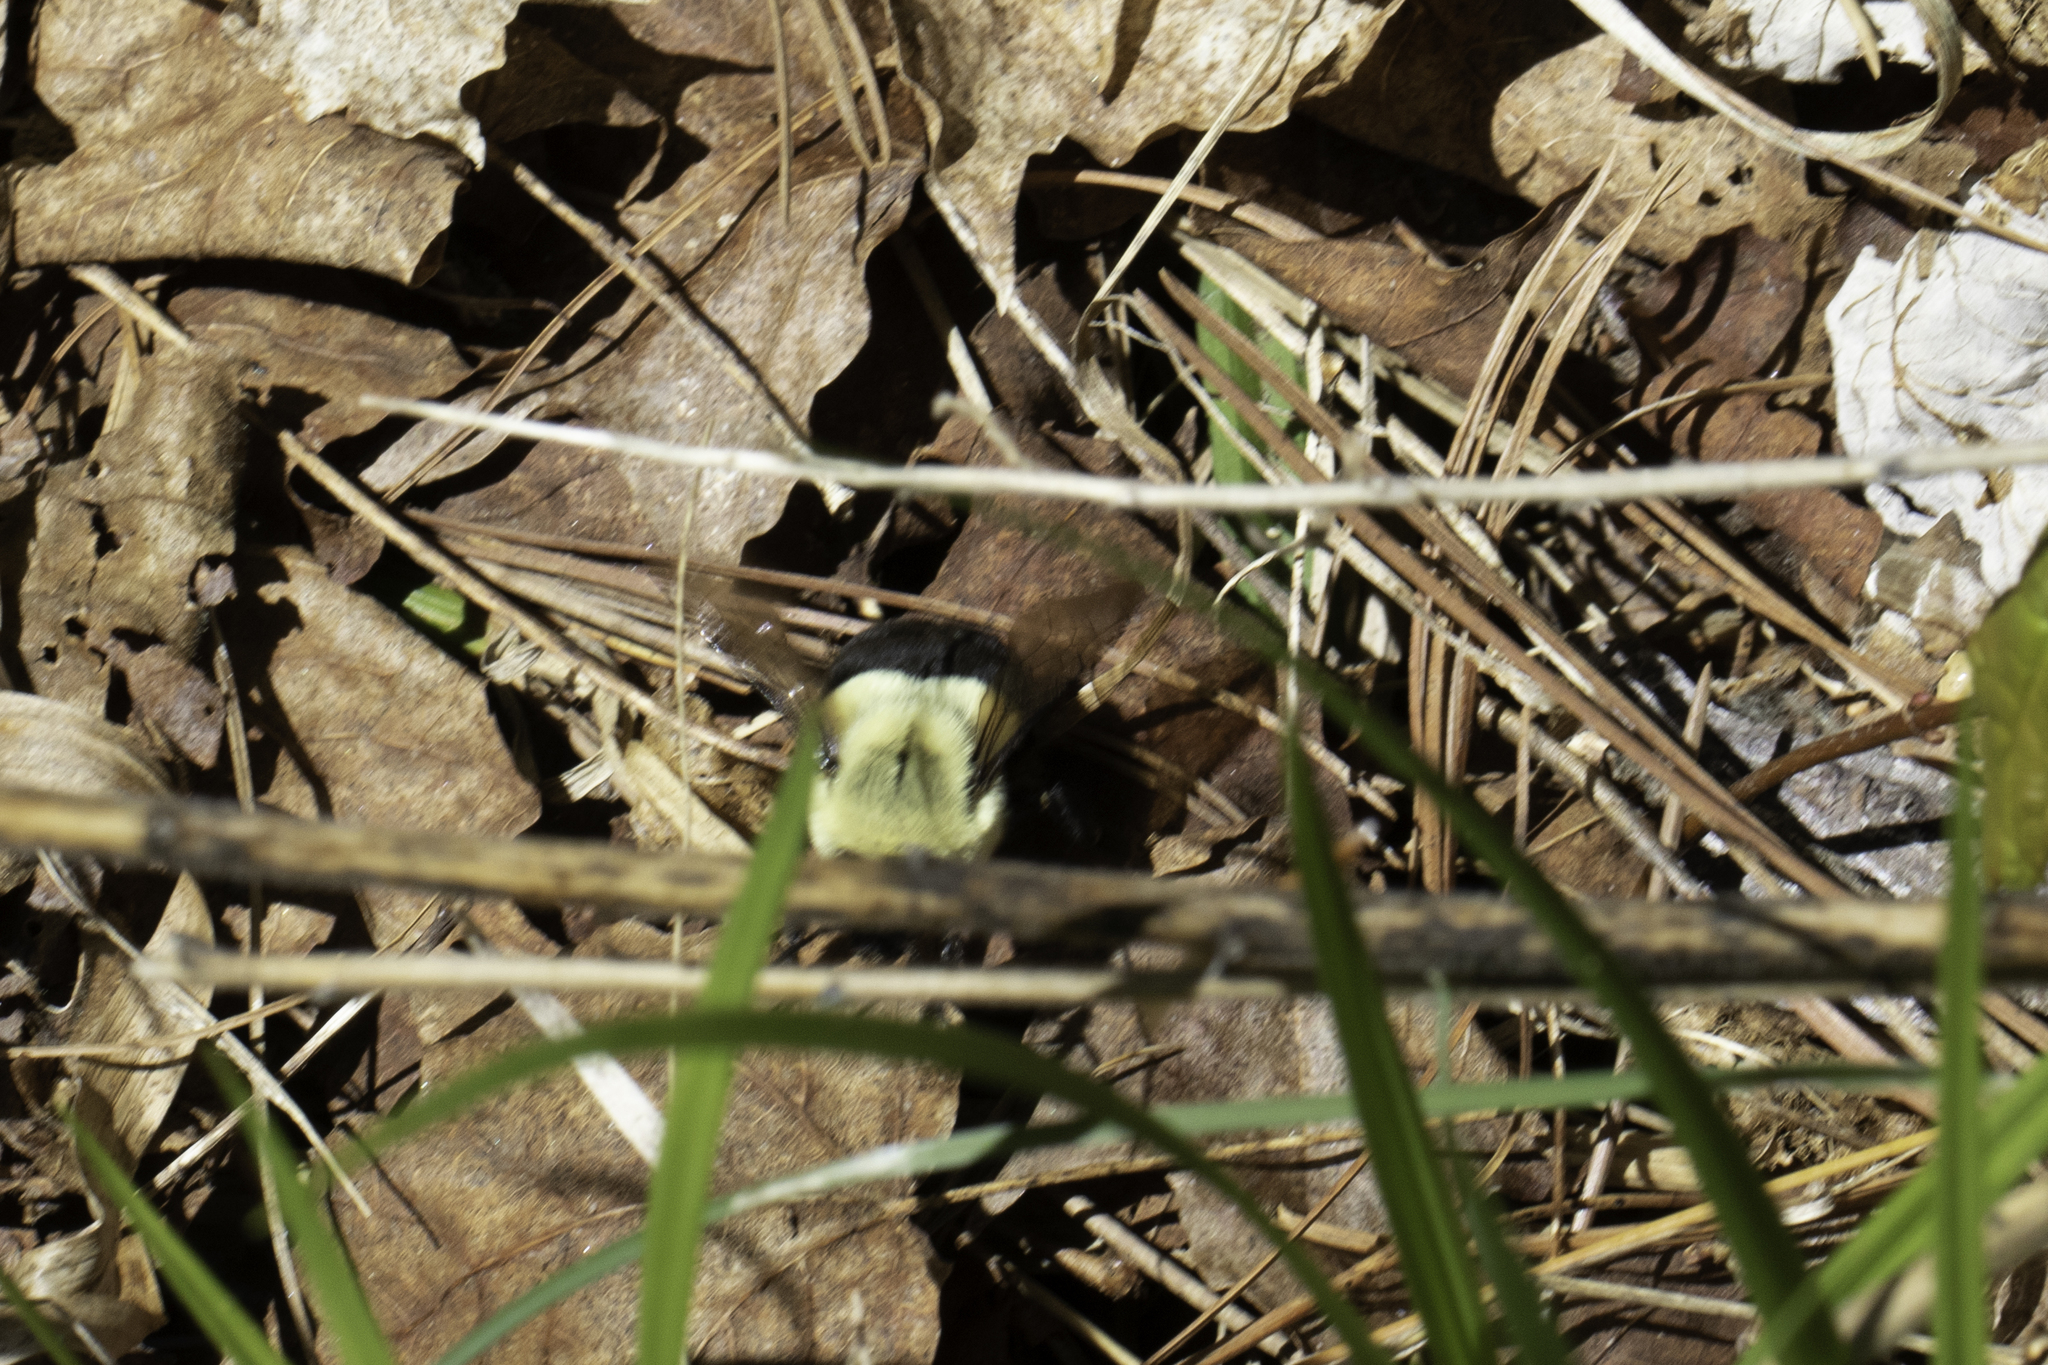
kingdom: Animalia
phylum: Arthropoda
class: Insecta
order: Hymenoptera
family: Apidae
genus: Bombus
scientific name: Bombus impatiens
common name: Common eastern bumble bee
